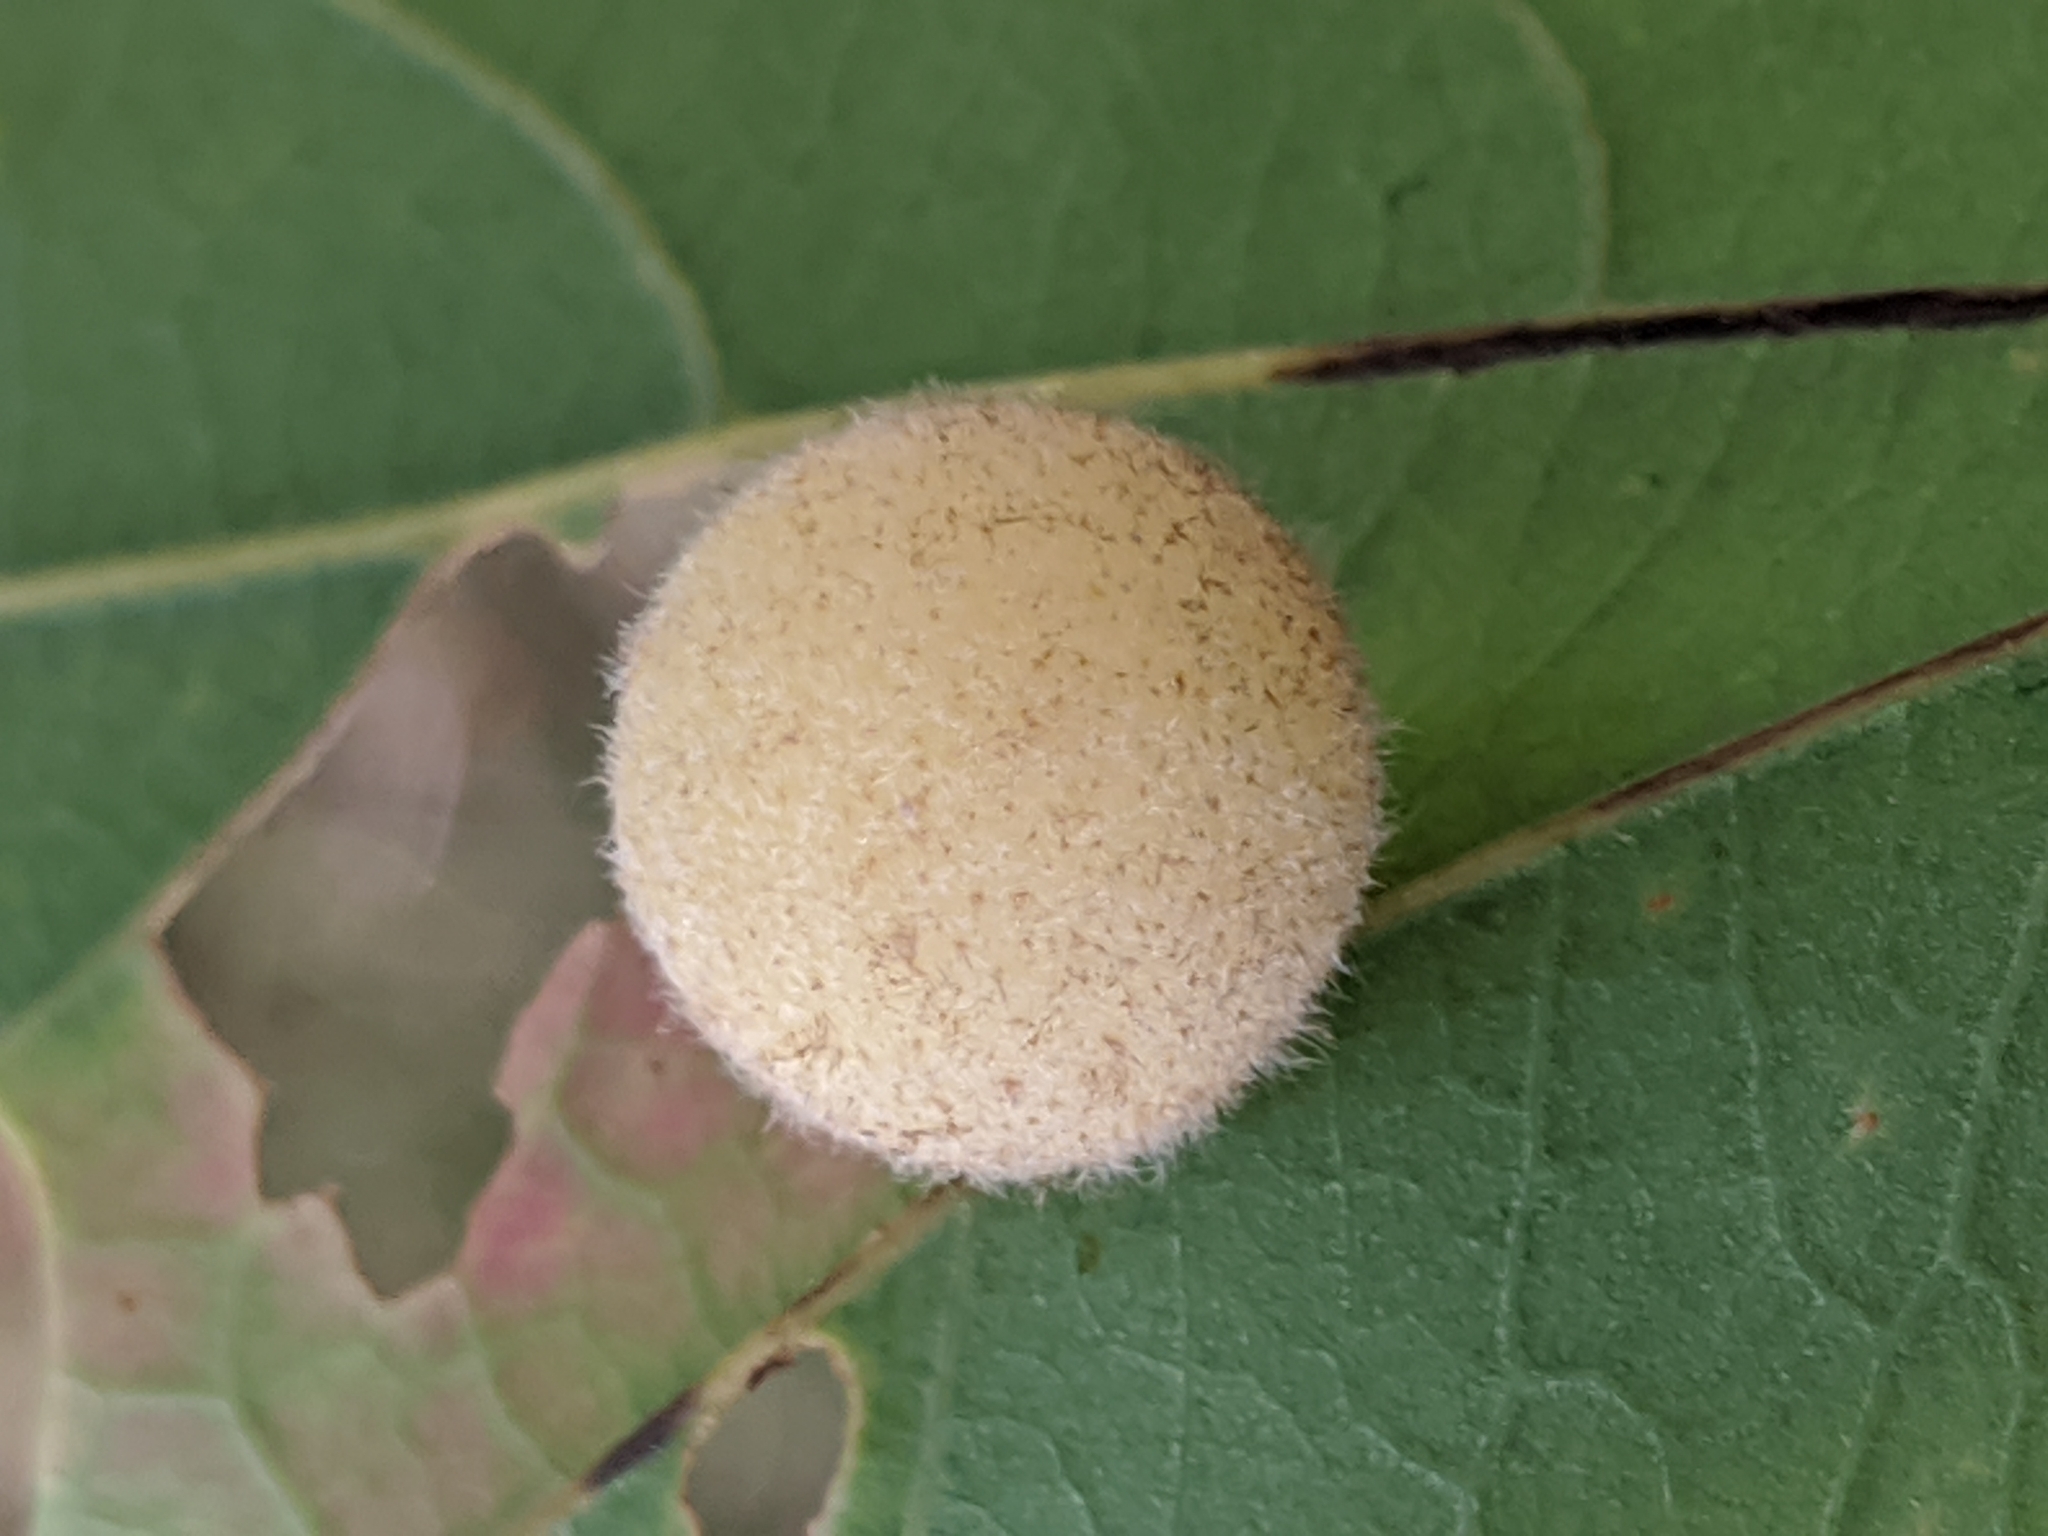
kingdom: Animalia
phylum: Arthropoda
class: Insecta
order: Hymenoptera
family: Cynipidae
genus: Philonix
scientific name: Philonix fulvicollis
